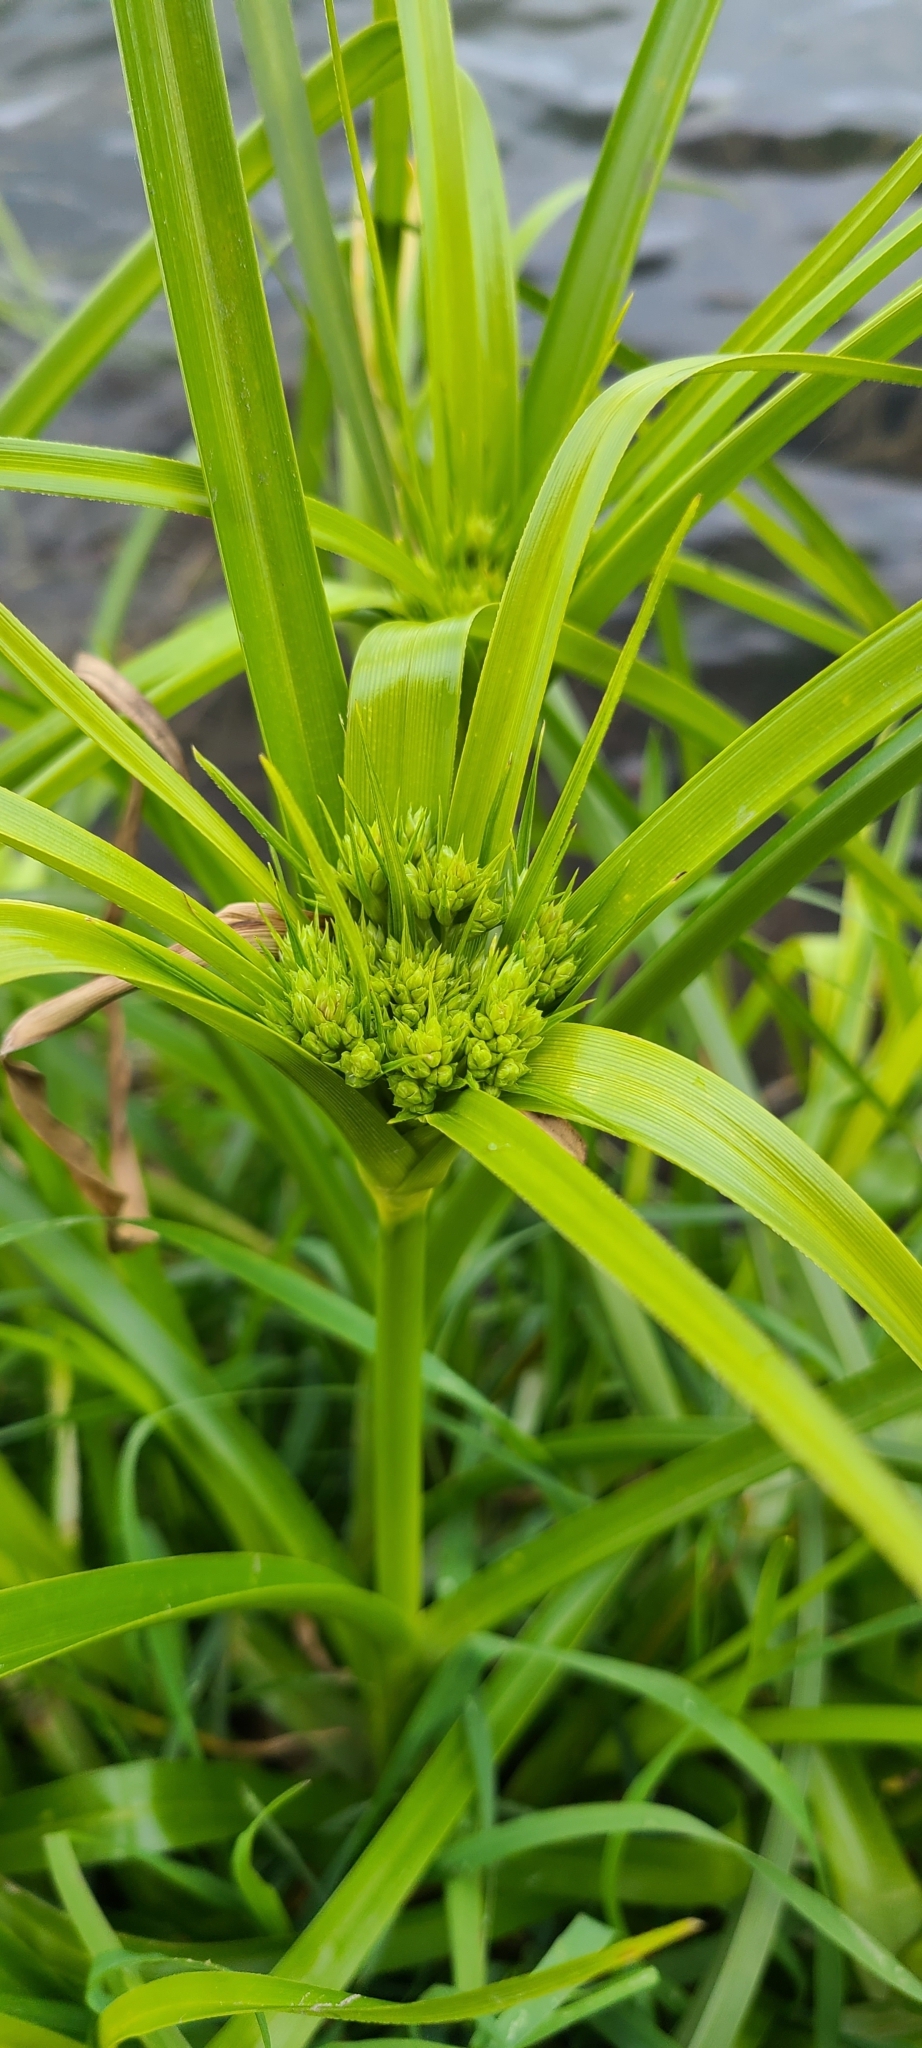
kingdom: Plantae
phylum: Tracheophyta
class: Liliopsida
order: Poales
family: Cyperaceae
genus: Cyperus
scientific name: Cyperus eragrostis
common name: Tall flatsedge
